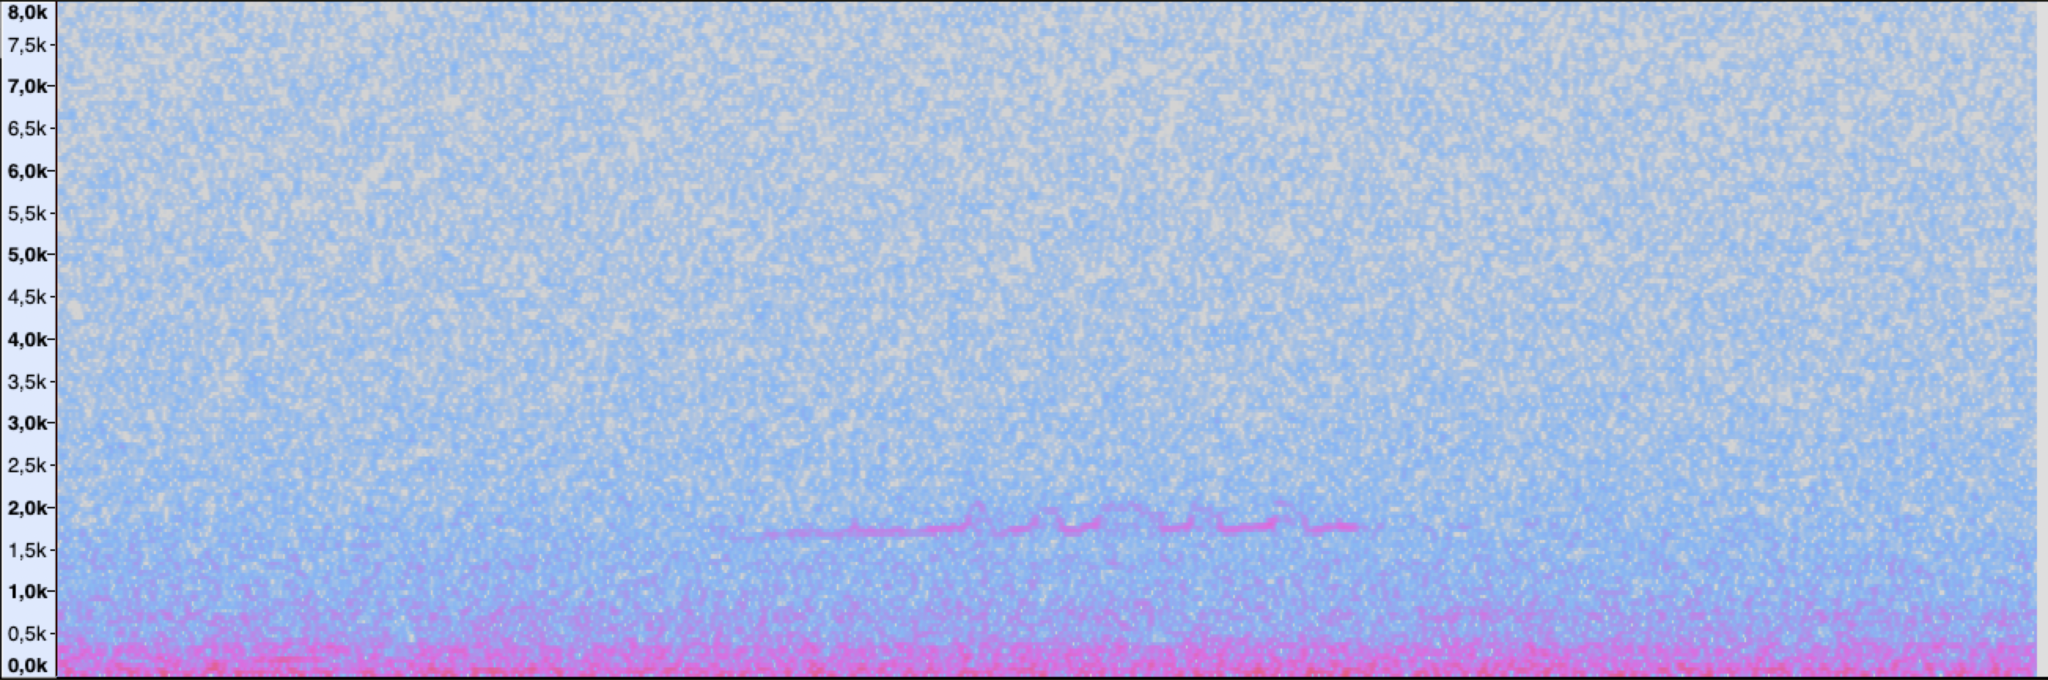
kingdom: Animalia
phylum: Chordata
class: Aves
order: Strigiformes
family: Tytonidae
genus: Tyto
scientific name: Tyto alba
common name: Barn owl
